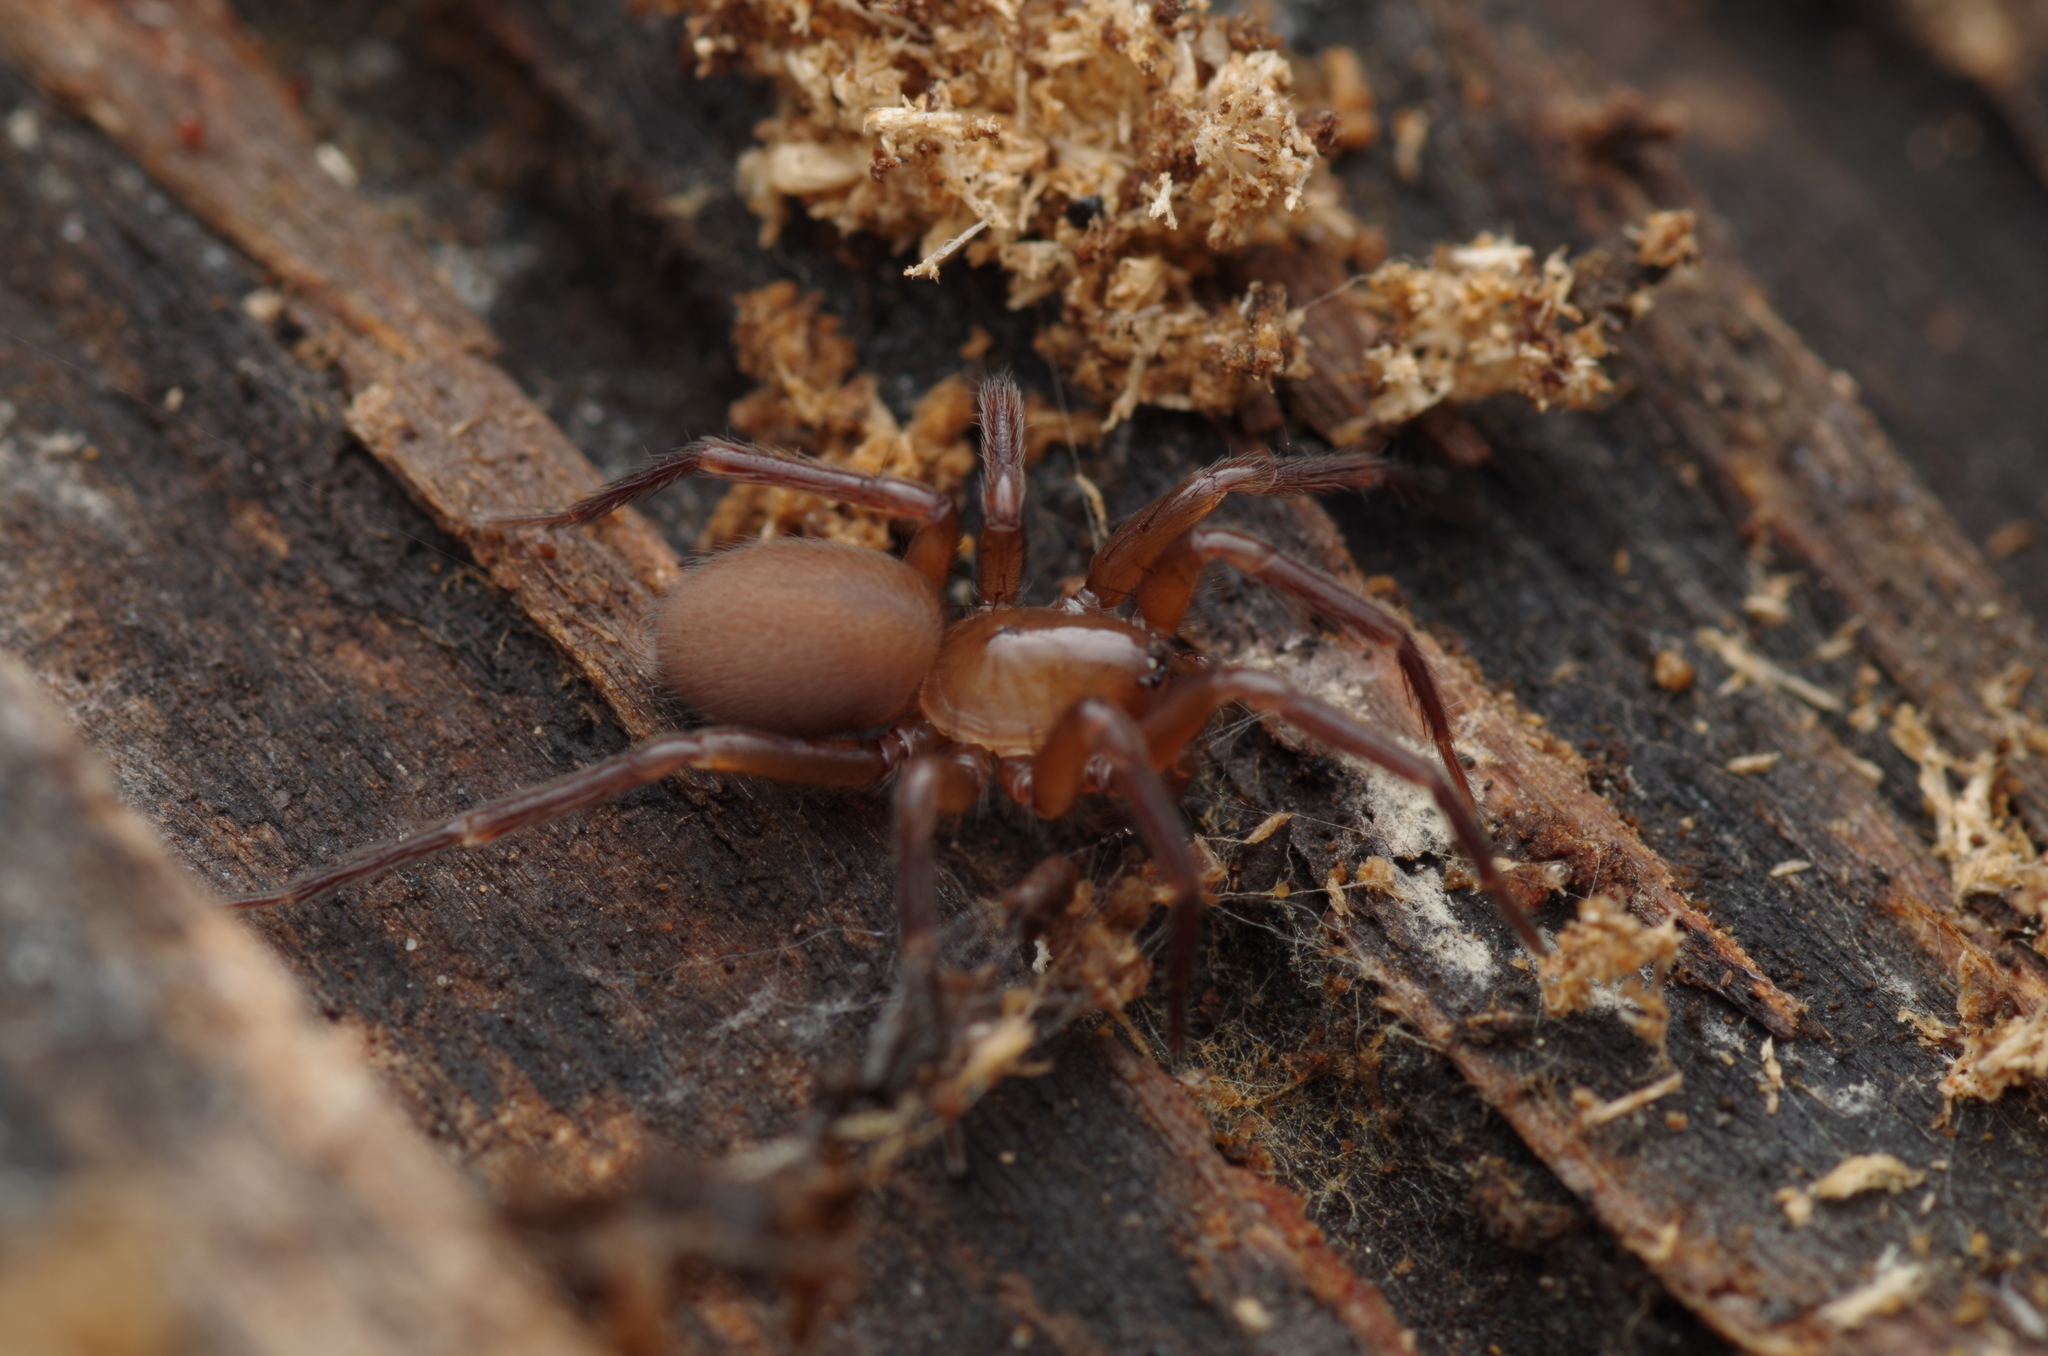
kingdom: Animalia
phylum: Arthropoda
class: Arachnida
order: Araneae
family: Hahniidae
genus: Cicurina
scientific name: Cicurina cicur
